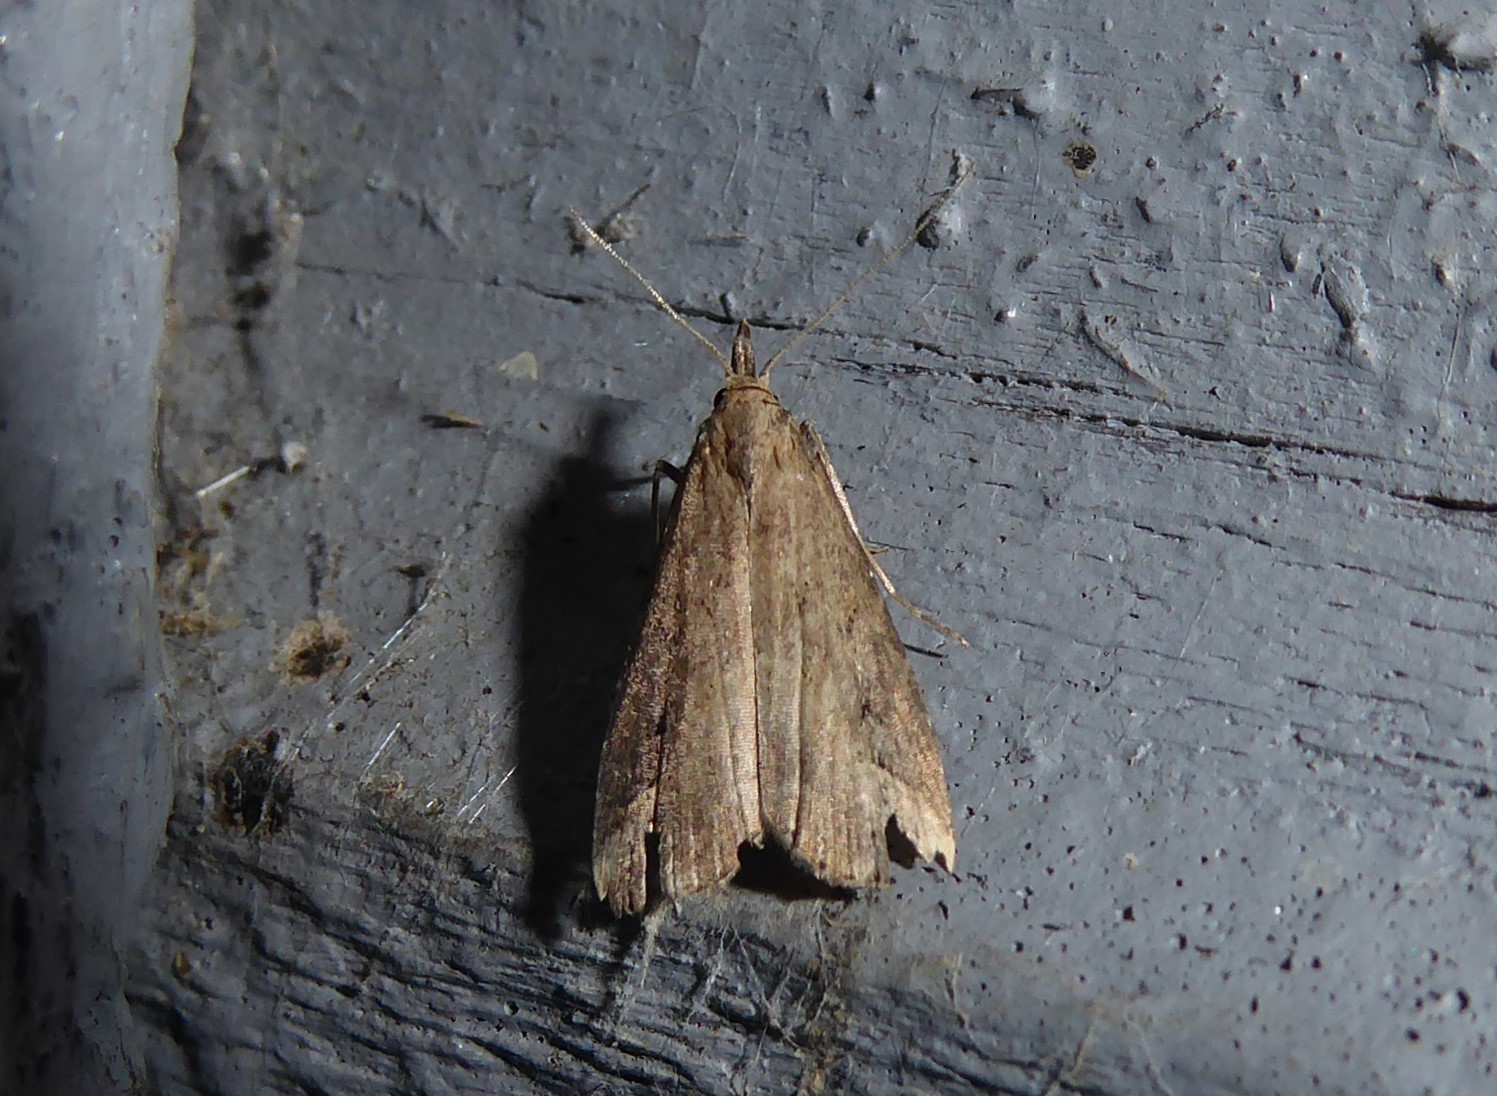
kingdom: Animalia
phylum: Arthropoda
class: Insecta
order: Lepidoptera
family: Erebidae
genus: Schrankia
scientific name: Schrankia costaestrigalis
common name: Pinion-streaked snout
